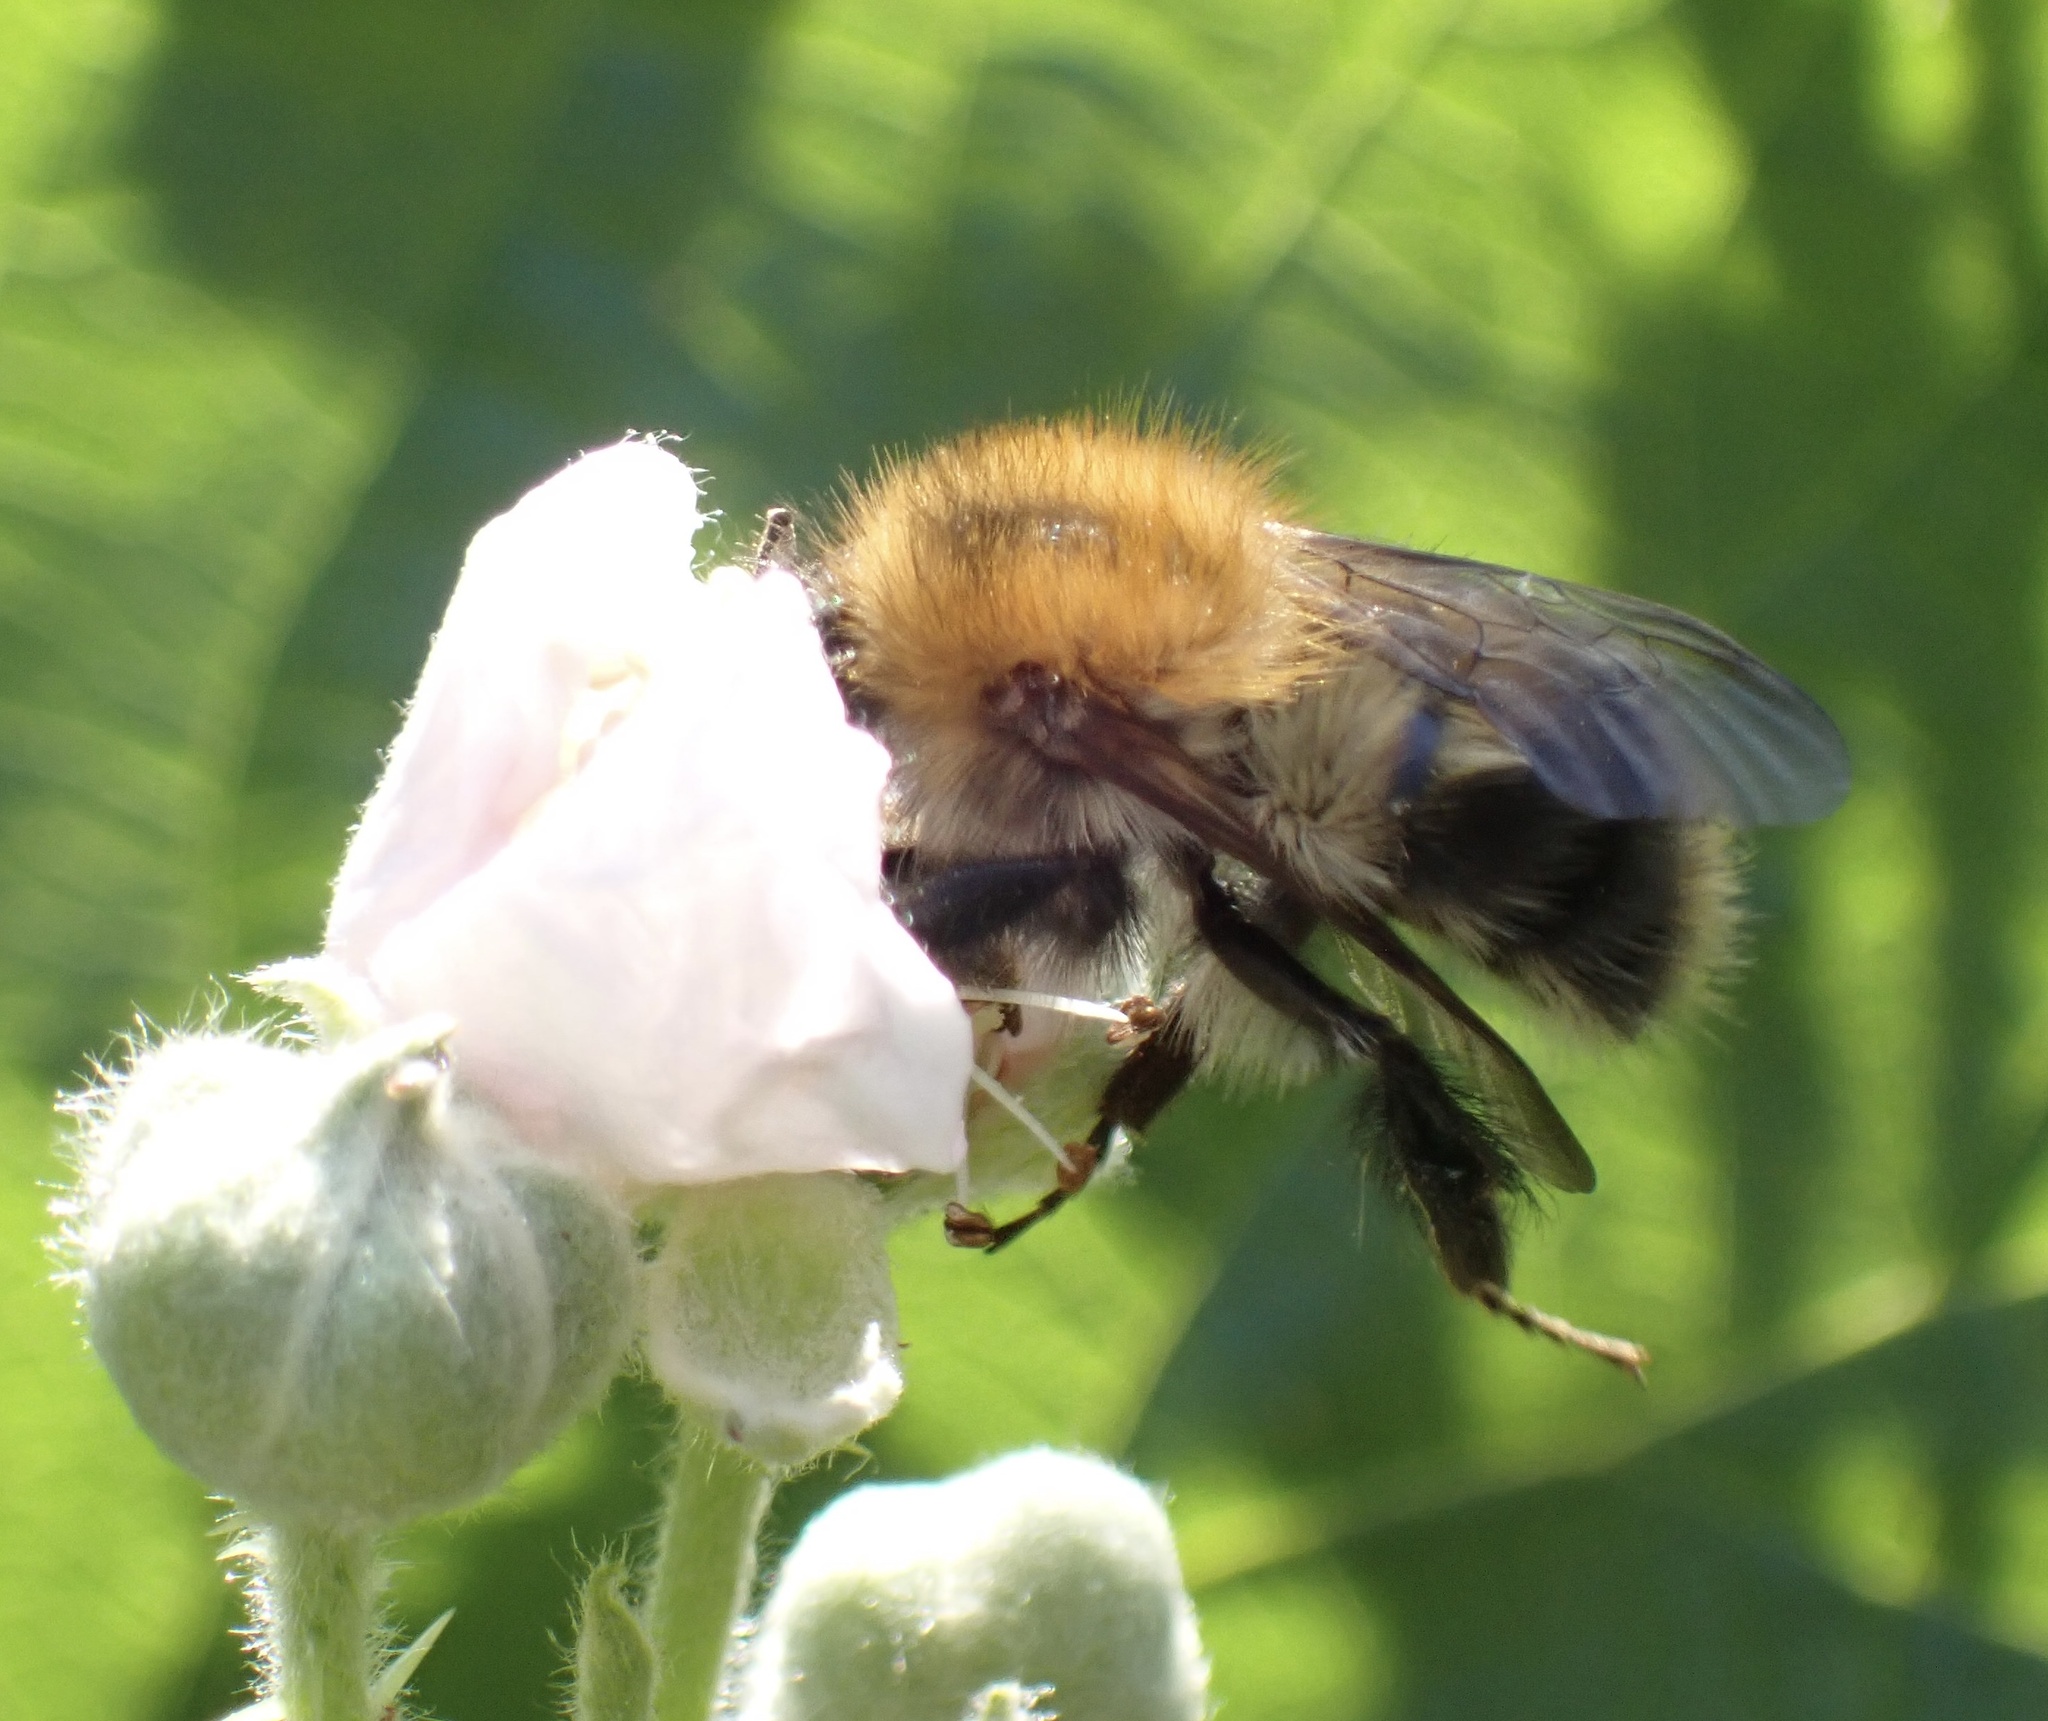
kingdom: Animalia
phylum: Arthropoda
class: Insecta
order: Hymenoptera
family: Apidae
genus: Bombus
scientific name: Bombus pascuorum
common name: Common carder bee
